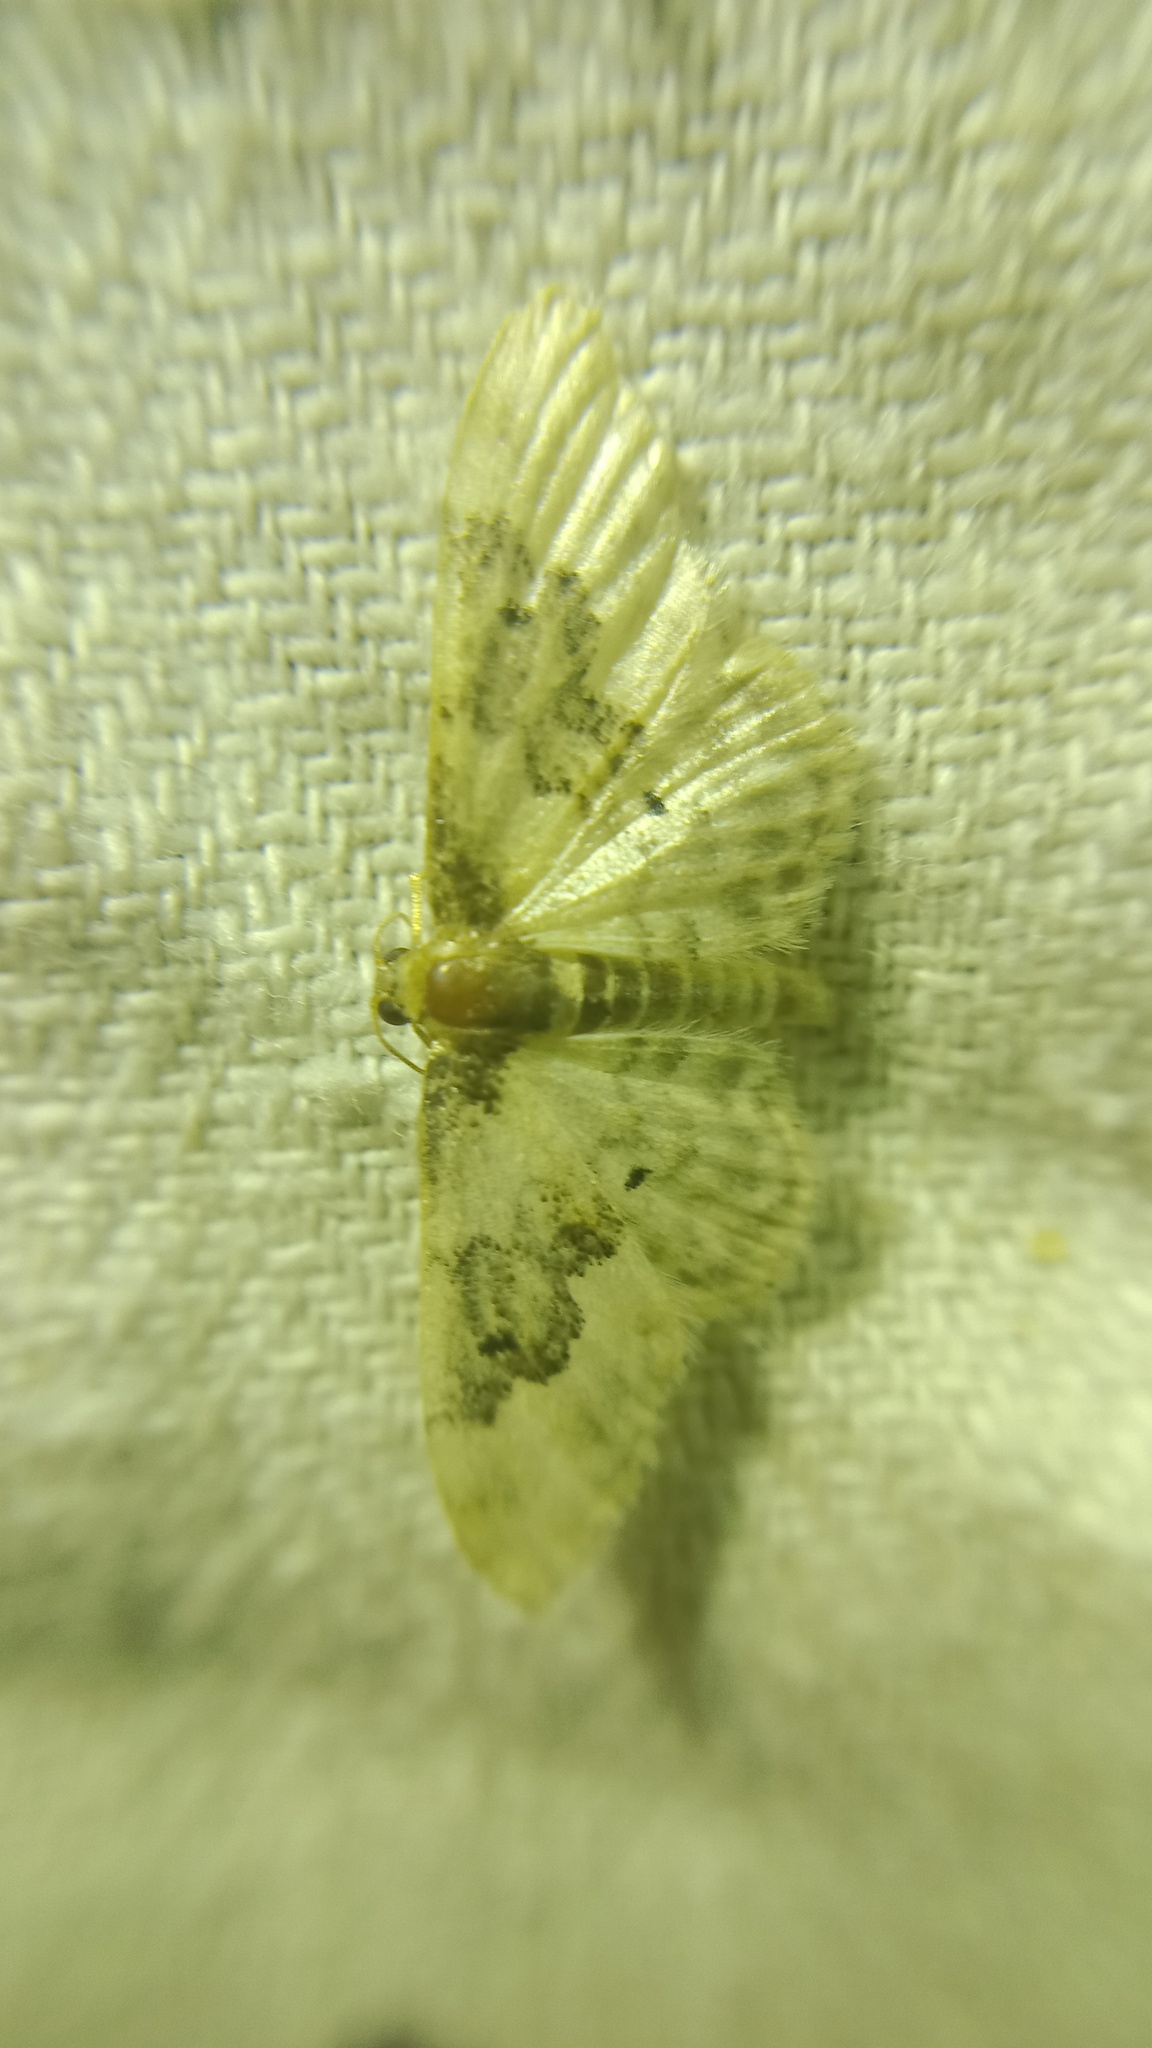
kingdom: Animalia
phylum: Arthropoda
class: Insecta
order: Lepidoptera
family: Geometridae
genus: Idaea
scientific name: Idaea rusticata
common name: Least carpet
